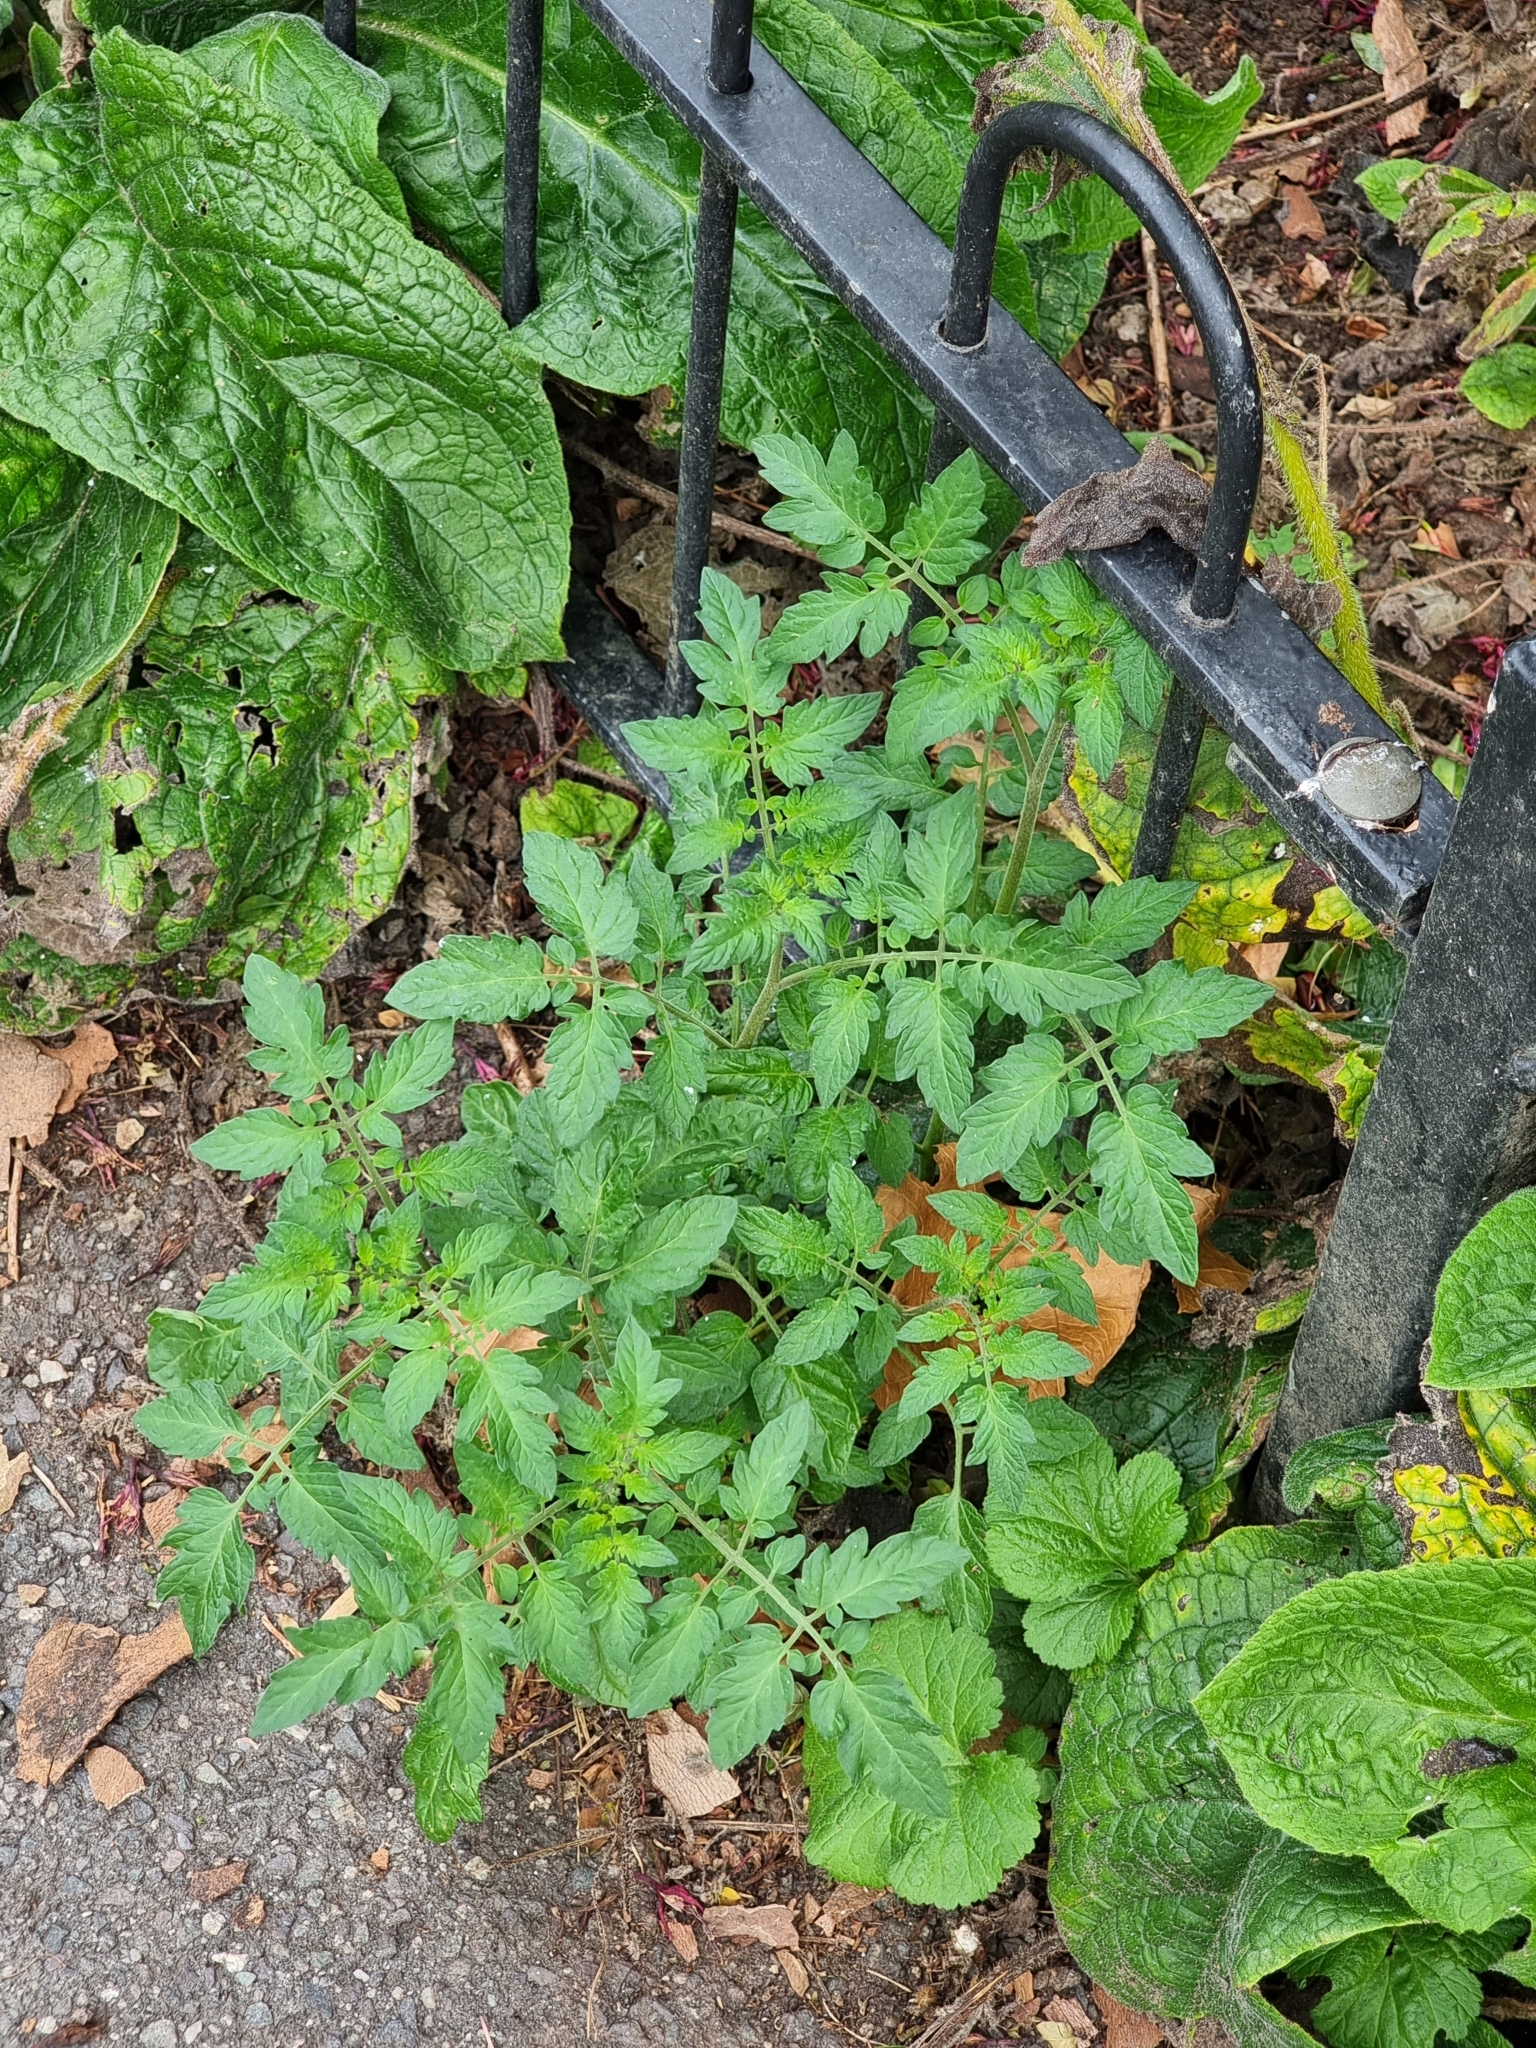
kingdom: Plantae
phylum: Tracheophyta
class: Magnoliopsida
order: Solanales
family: Solanaceae
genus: Solanum
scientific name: Solanum lycopersicum
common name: Garden tomato
